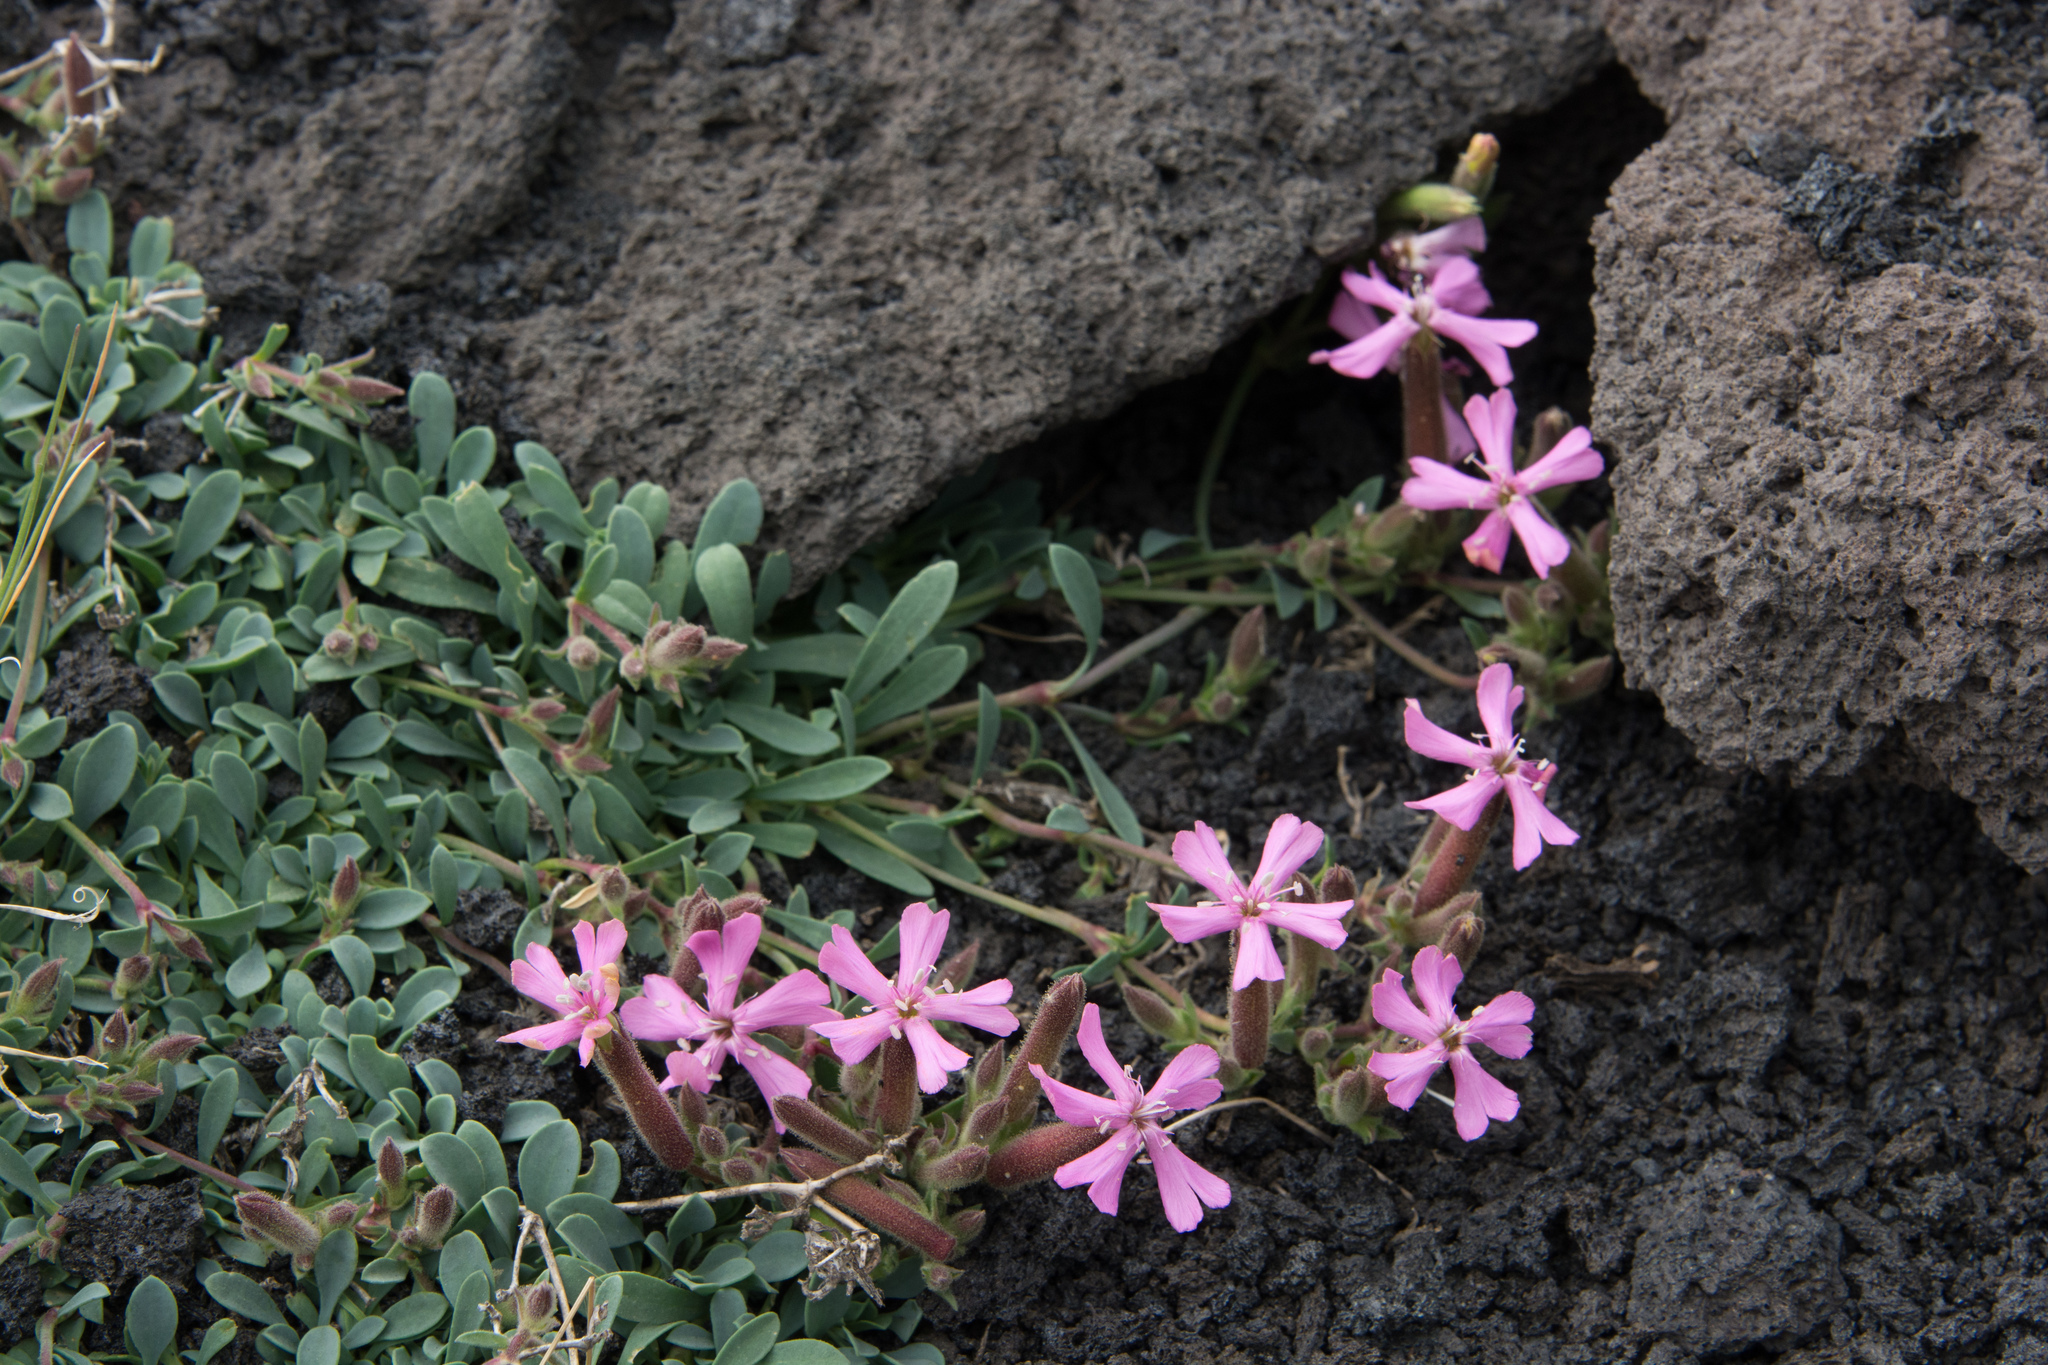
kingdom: Plantae
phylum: Tracheophyta
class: Magnoliopsida
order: Caryophyllales
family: Caryophyllaceae
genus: Saponaria
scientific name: Saponaria sicula
